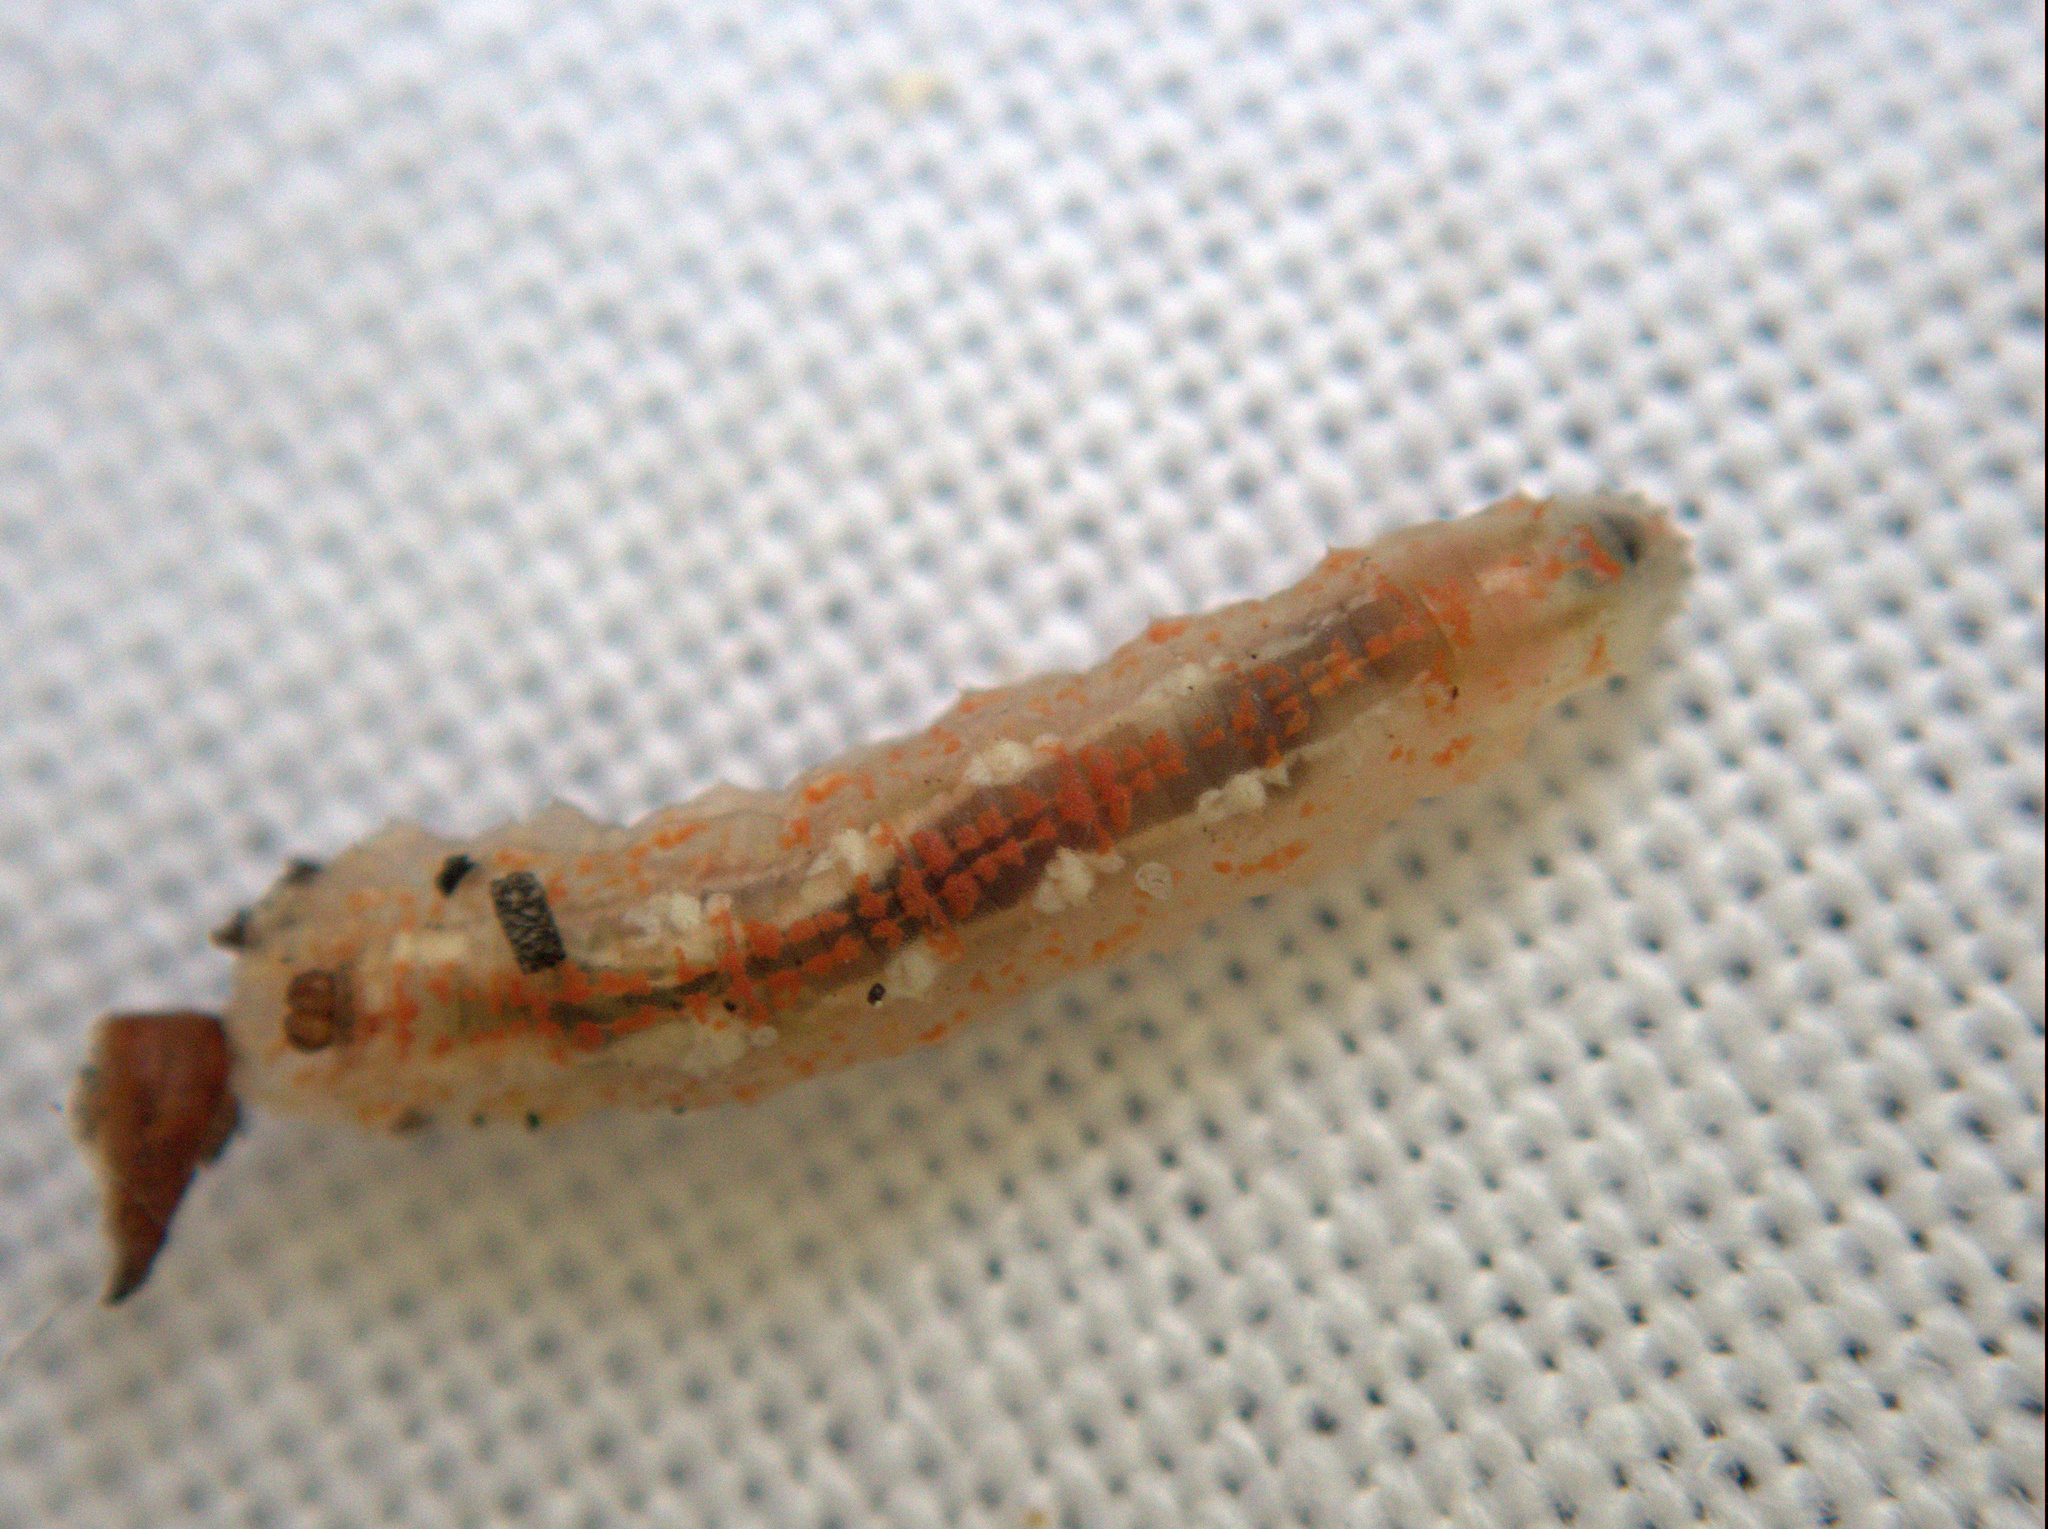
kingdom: Animalia
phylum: Arthropoda
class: Insecta
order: Diptera
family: Syrphidae
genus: Syrphus
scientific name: Syrphus
